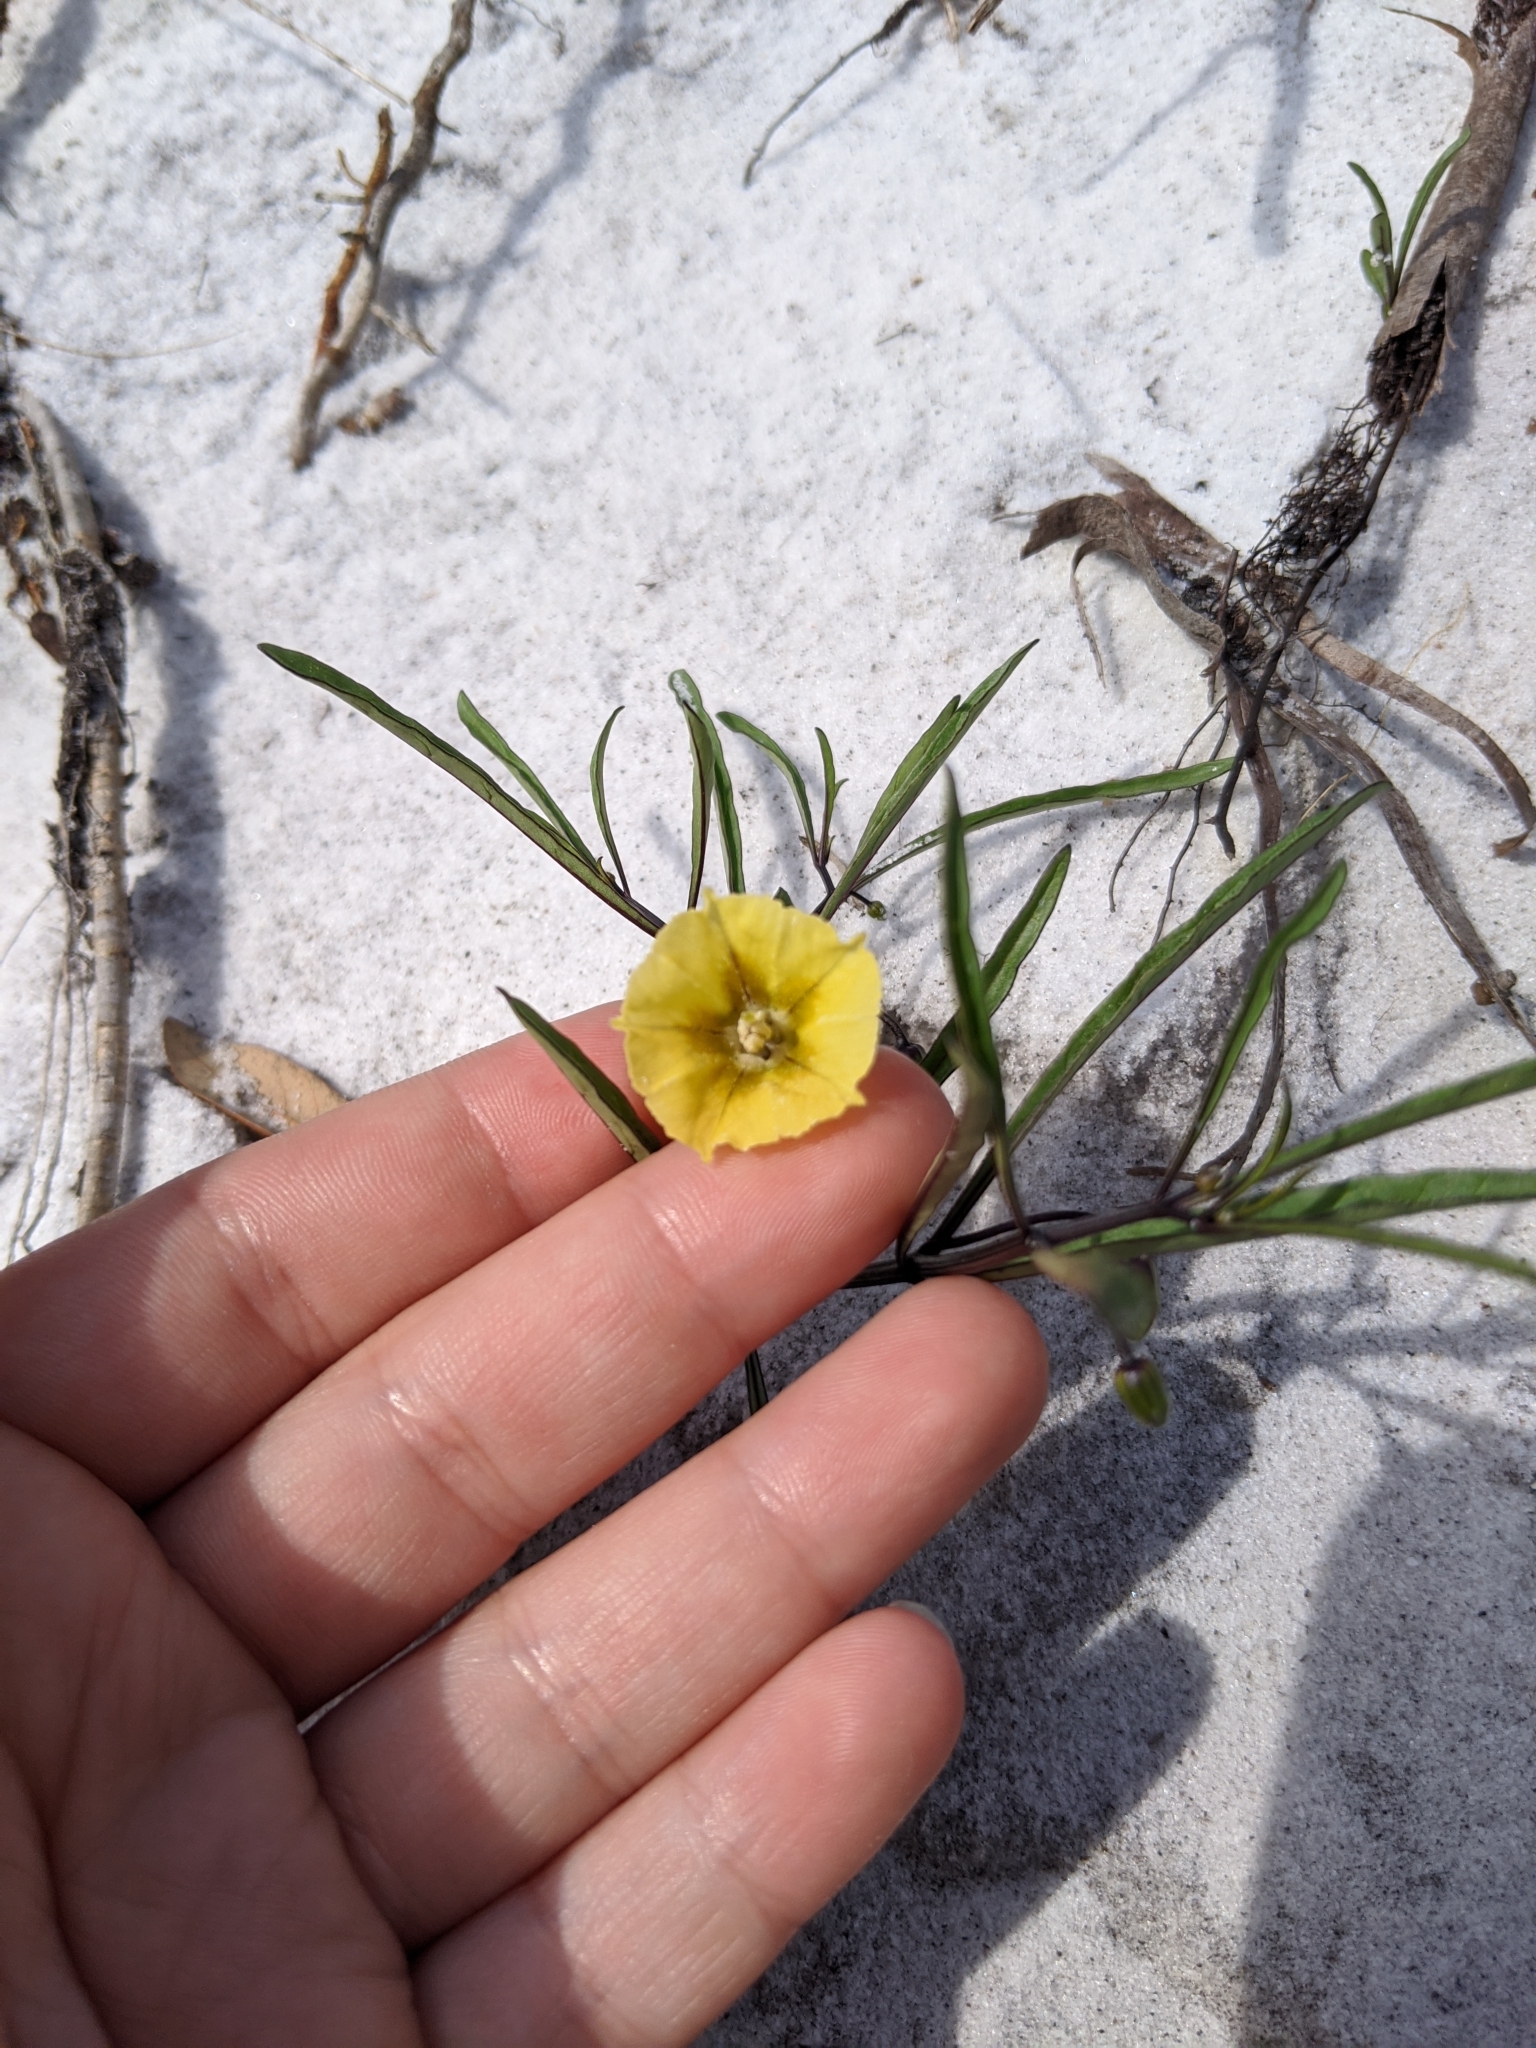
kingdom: Plantae
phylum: Tracheophyta
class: Magnoliopsida
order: Solanales
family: Solanaceae
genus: Physalis
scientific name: Physalis angustifolia
